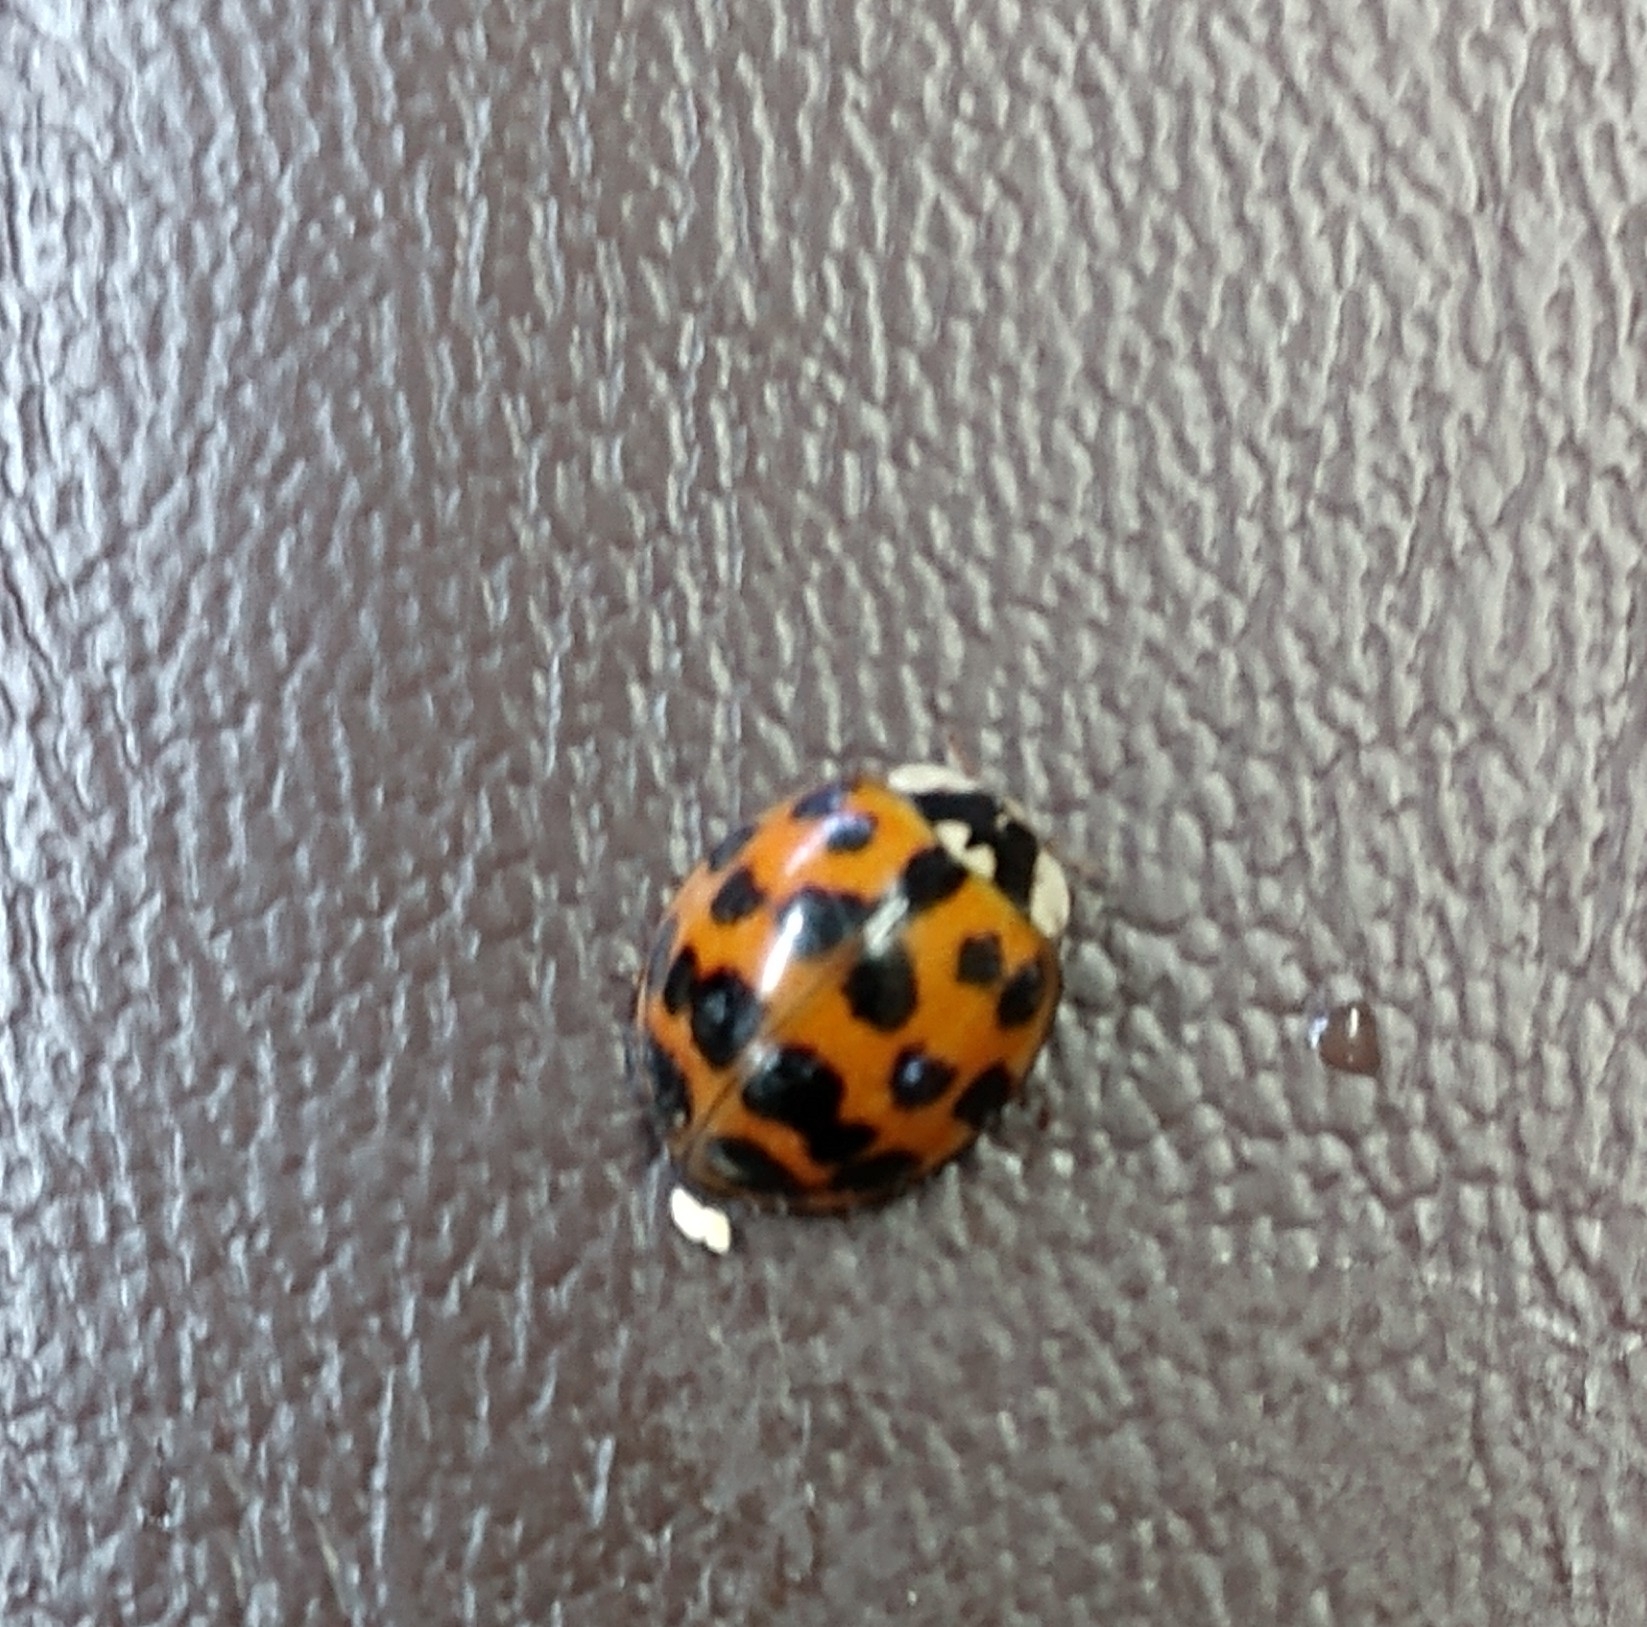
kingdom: Animalia
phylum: Arthropoda
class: Insecta
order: Coleoptera
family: Coccinellidae
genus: Harmonia
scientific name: Harmonia axyridis
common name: Harlequin ladybird
